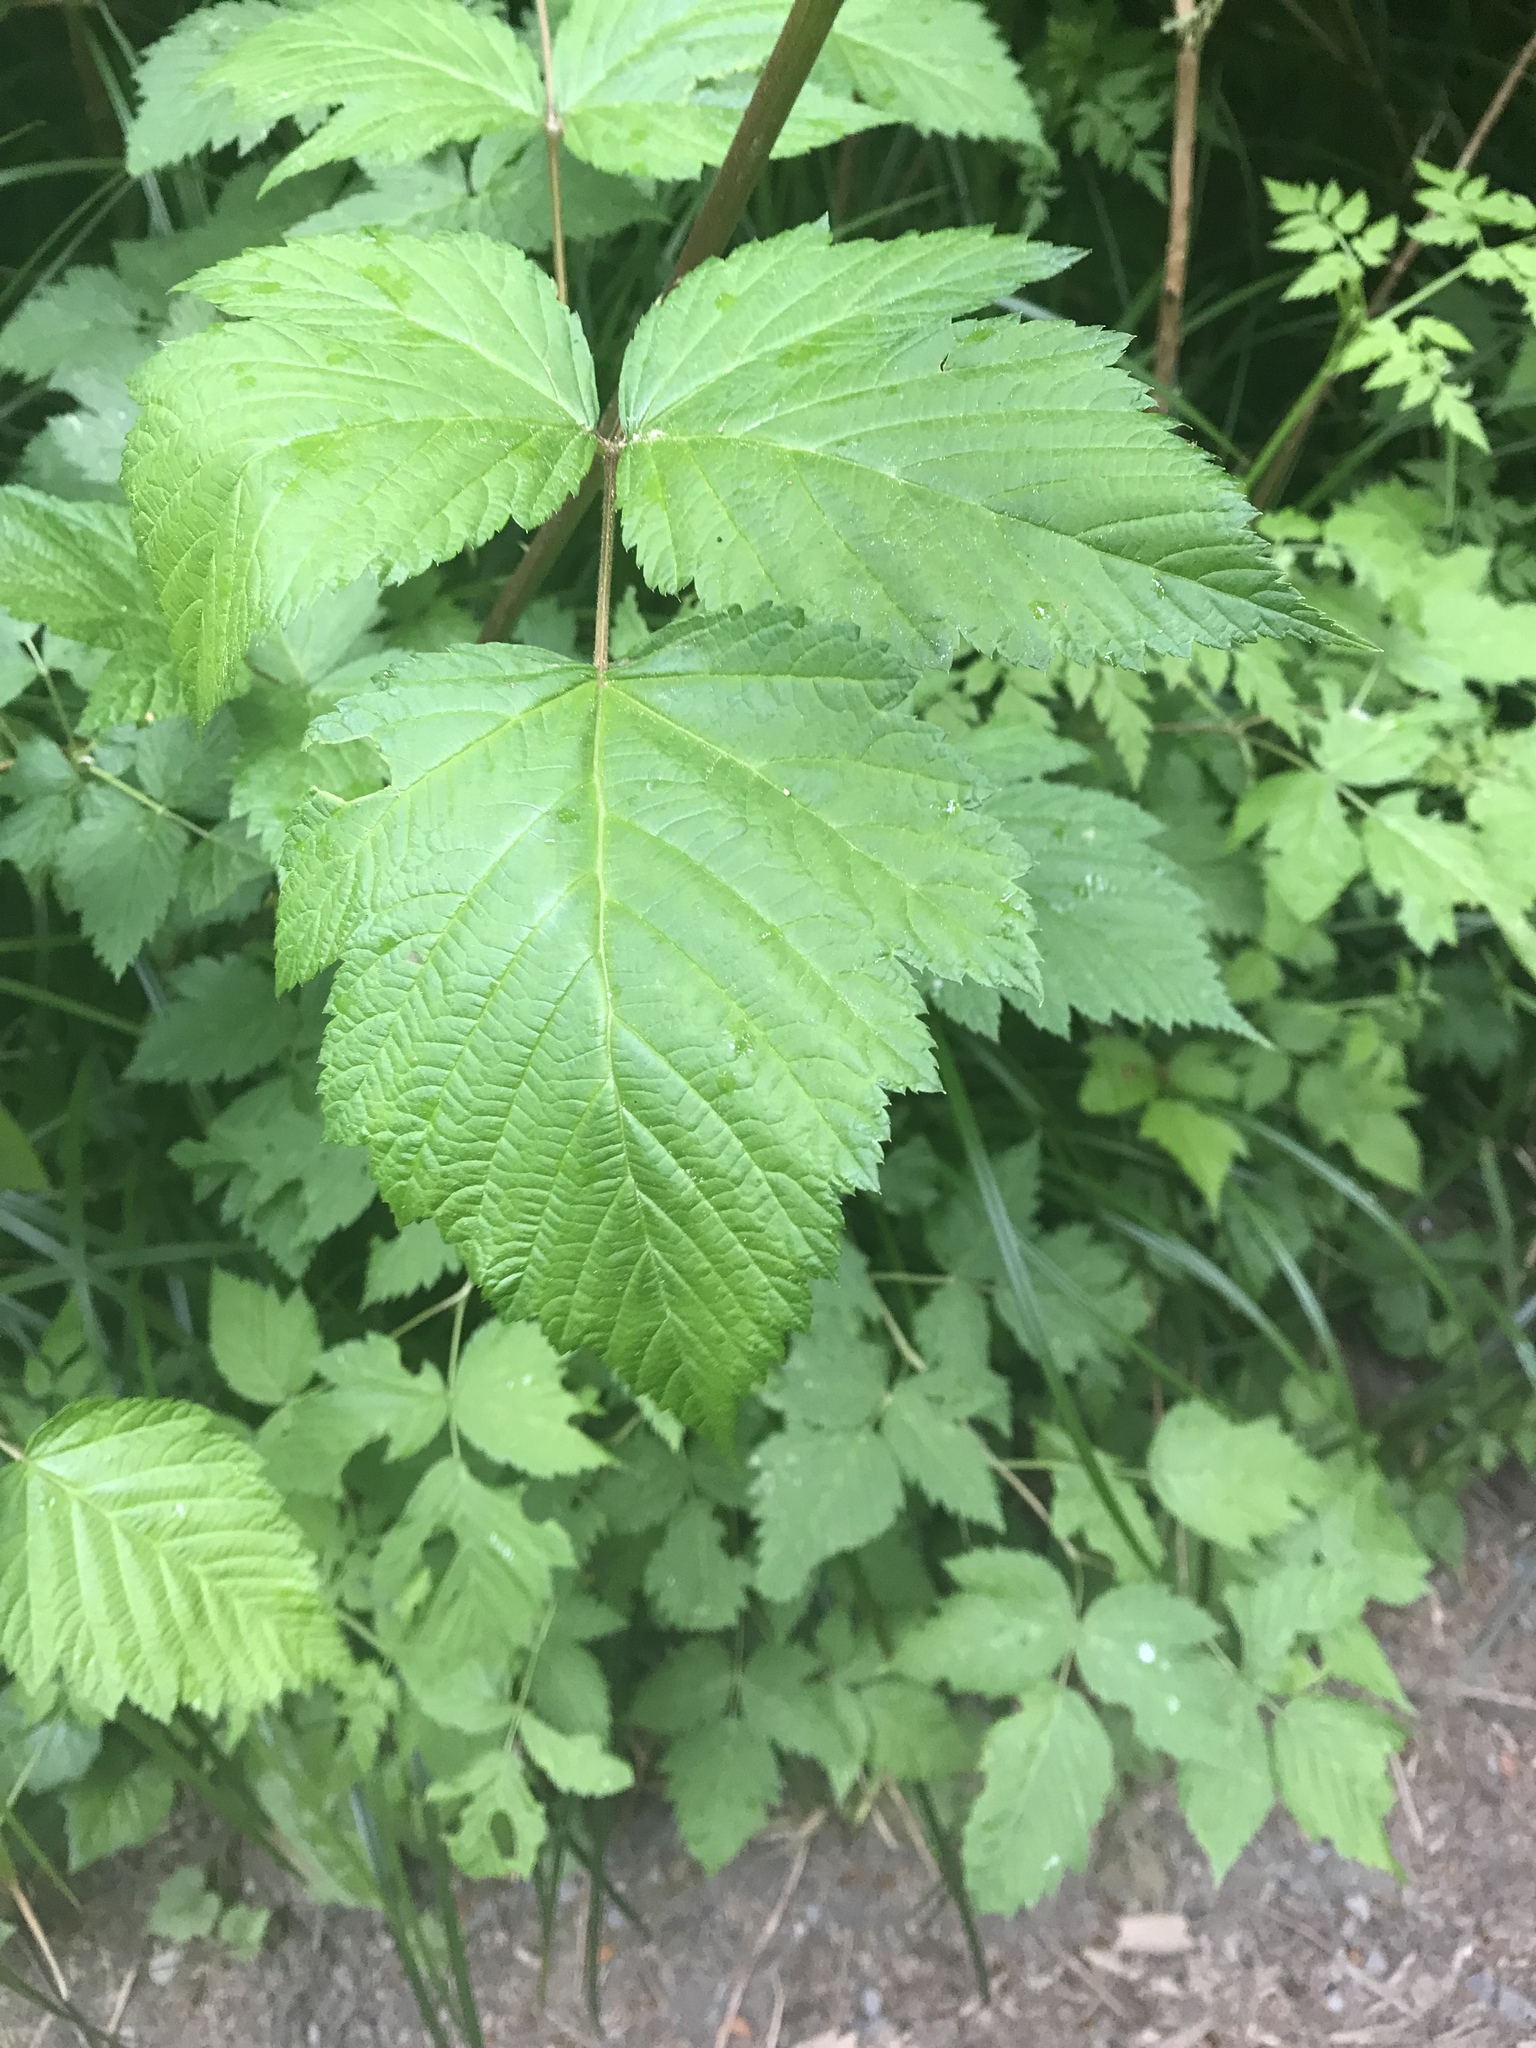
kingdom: Plantae
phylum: Tracheophyta
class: Magnoliopsida
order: Rosales
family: Rosaceae
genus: Rubus
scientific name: Rubus spectabilis
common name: Salmonberry
